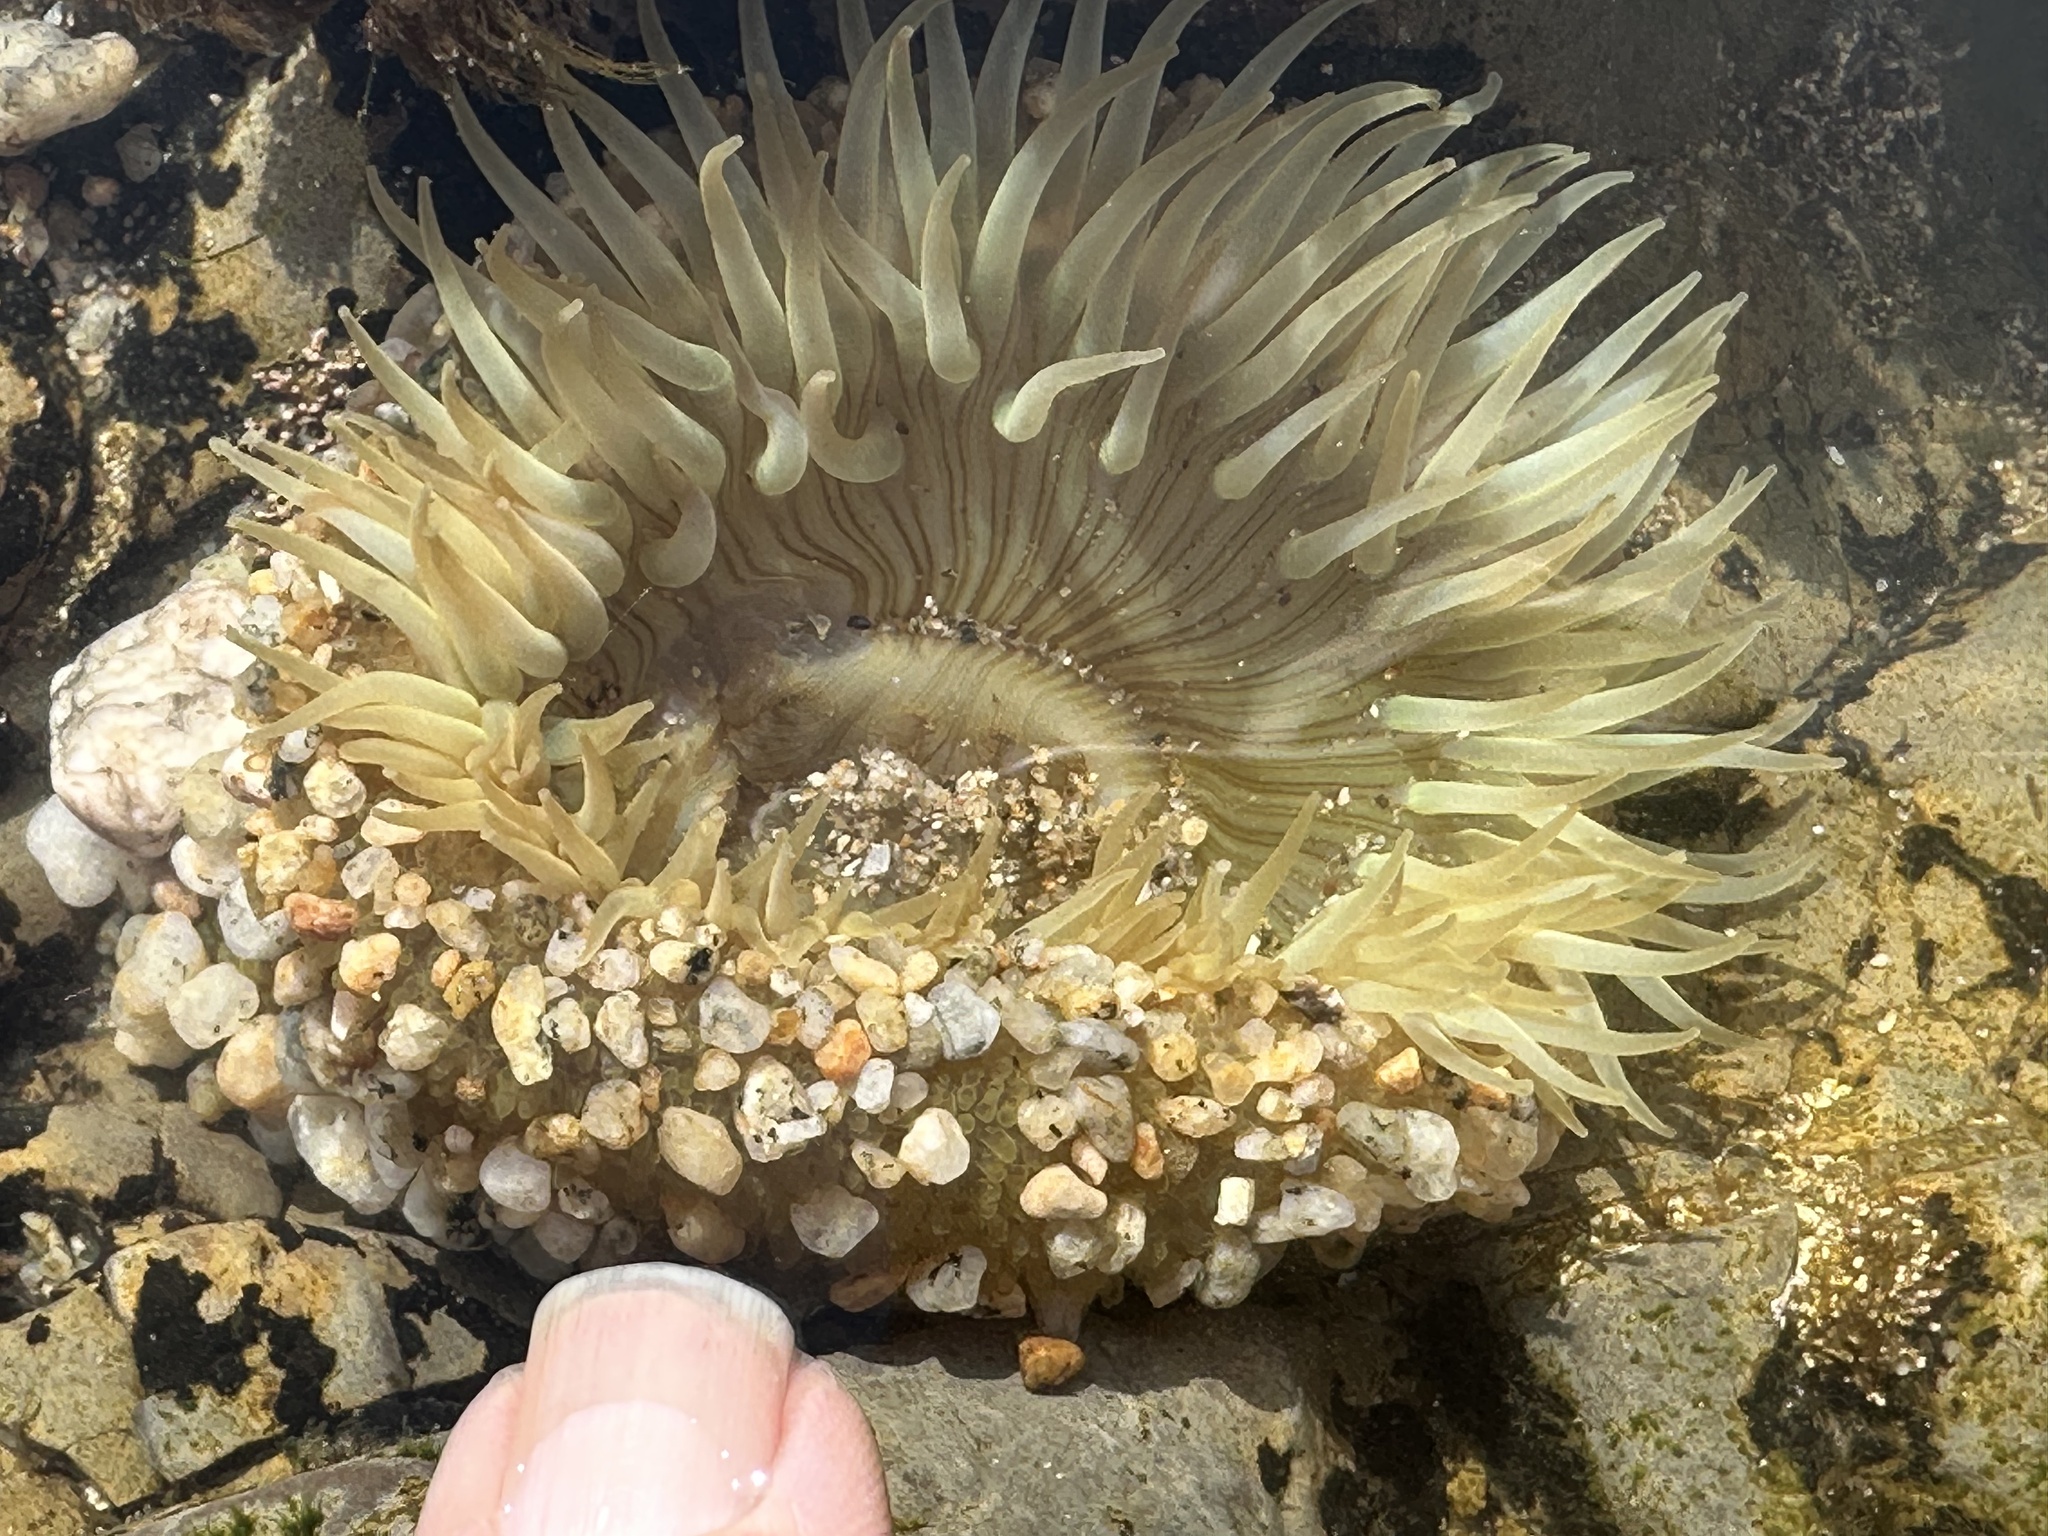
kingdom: Animalia
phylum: Cnidaria
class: Anthozoa
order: Actiniaria
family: Actiniidae
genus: Anthopleura
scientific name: Anthopleura sola
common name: Sun anemone
